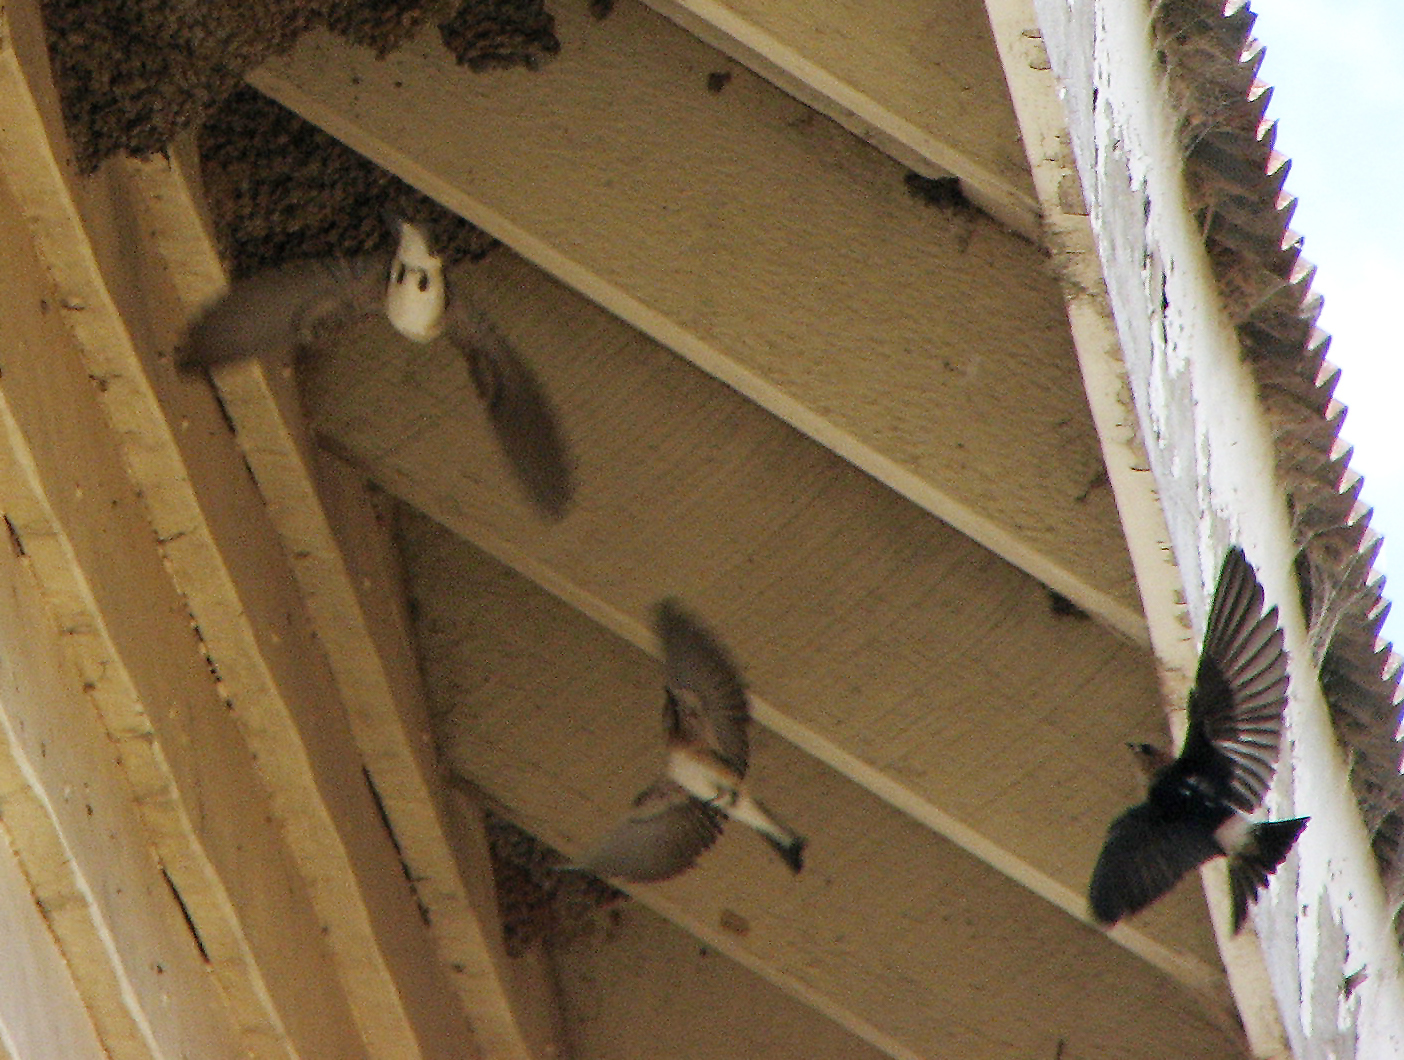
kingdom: Animalia
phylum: Chordata
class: Aves
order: Passeriformes
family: Hirundinidae
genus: Petrochelidon
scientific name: Petrochelidon ariel
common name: Fairy martin
